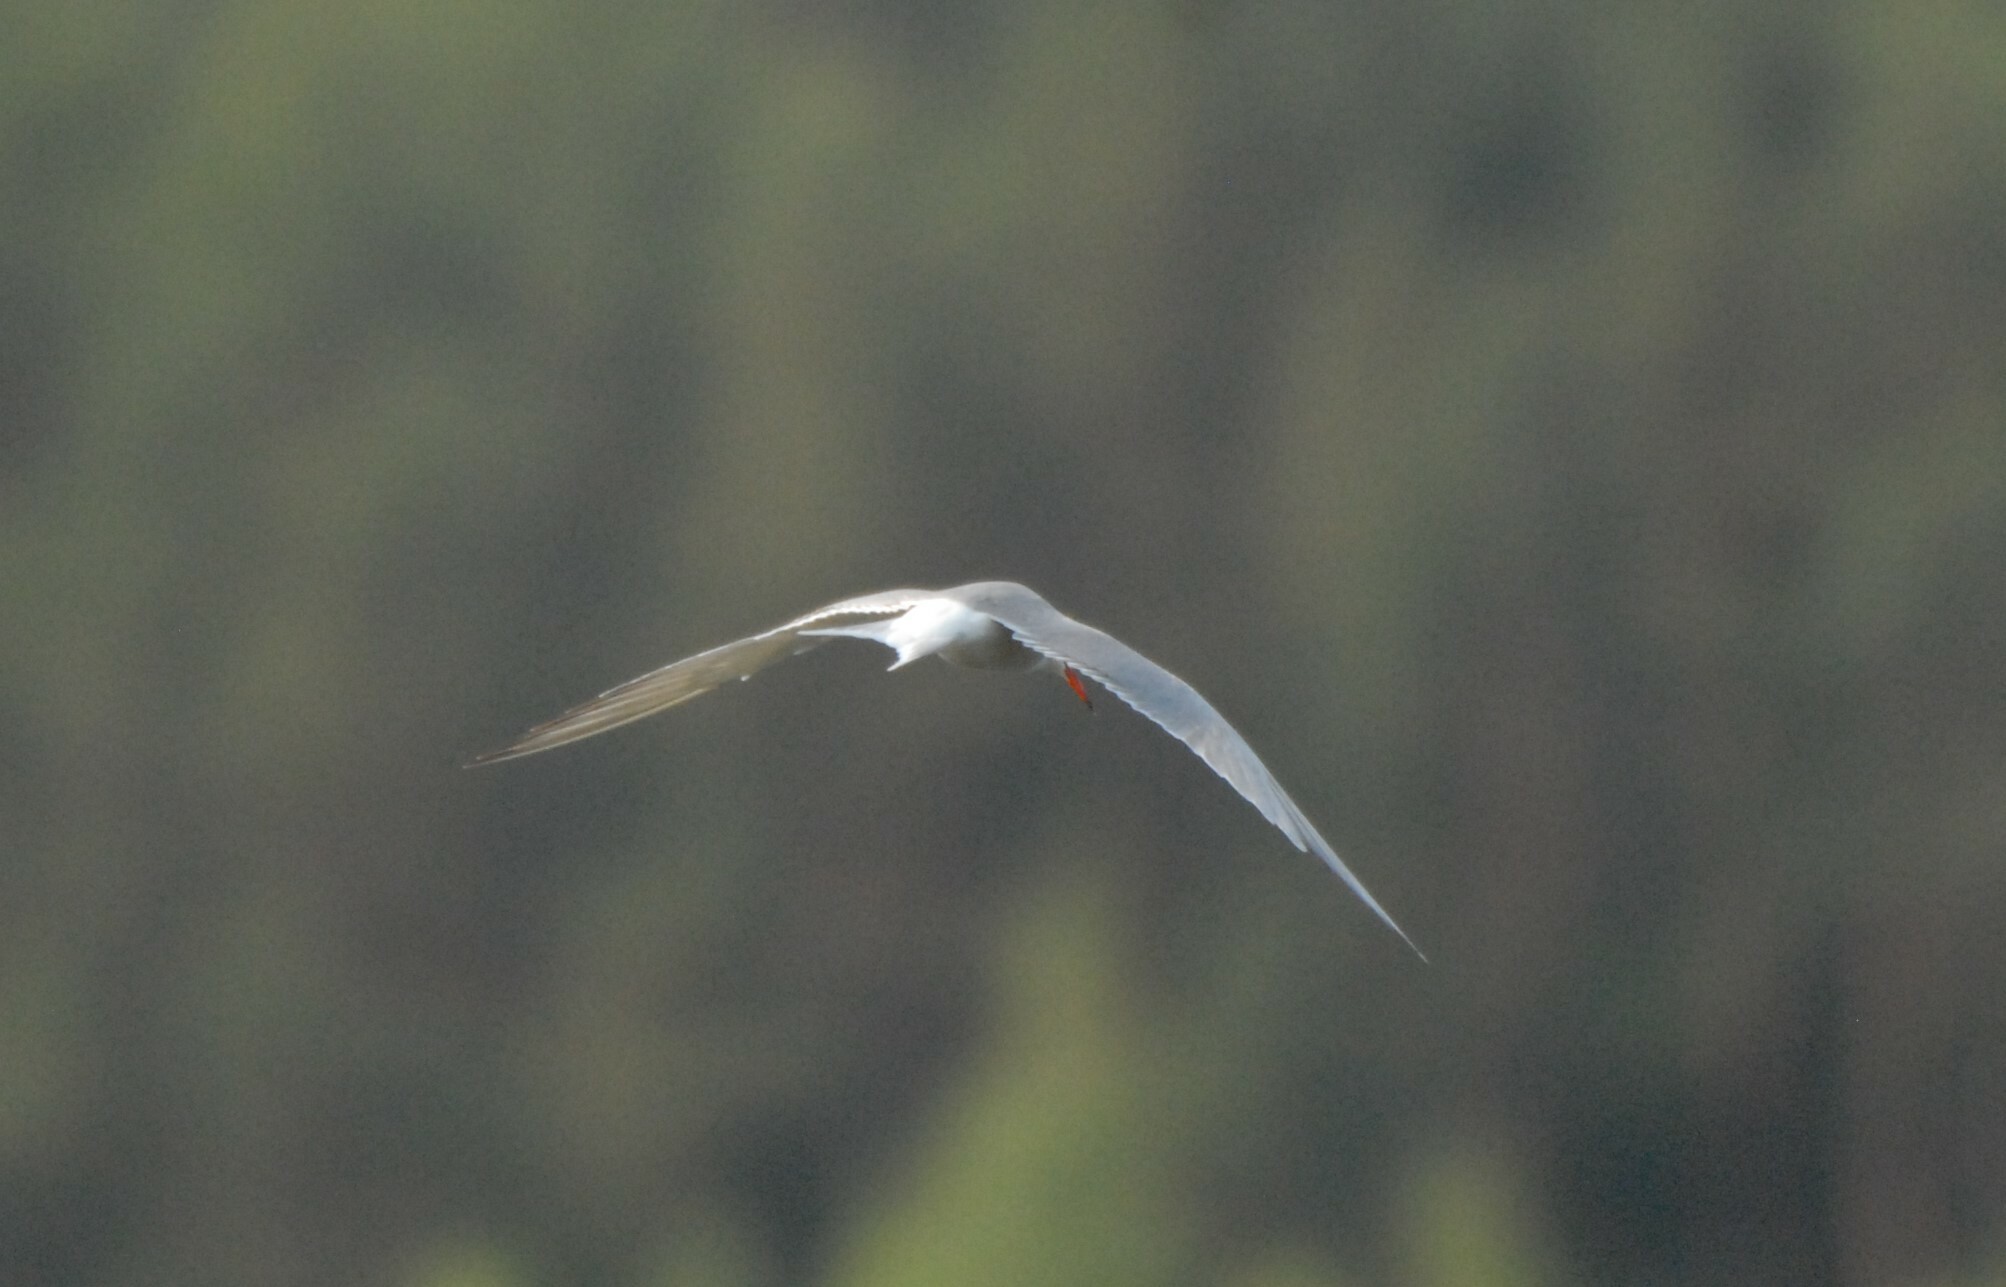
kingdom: Animalia
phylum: Chordata
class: Aves
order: Charadriiformes
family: Laridae
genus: Sterna
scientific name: Sterna hirundo
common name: Common tern
